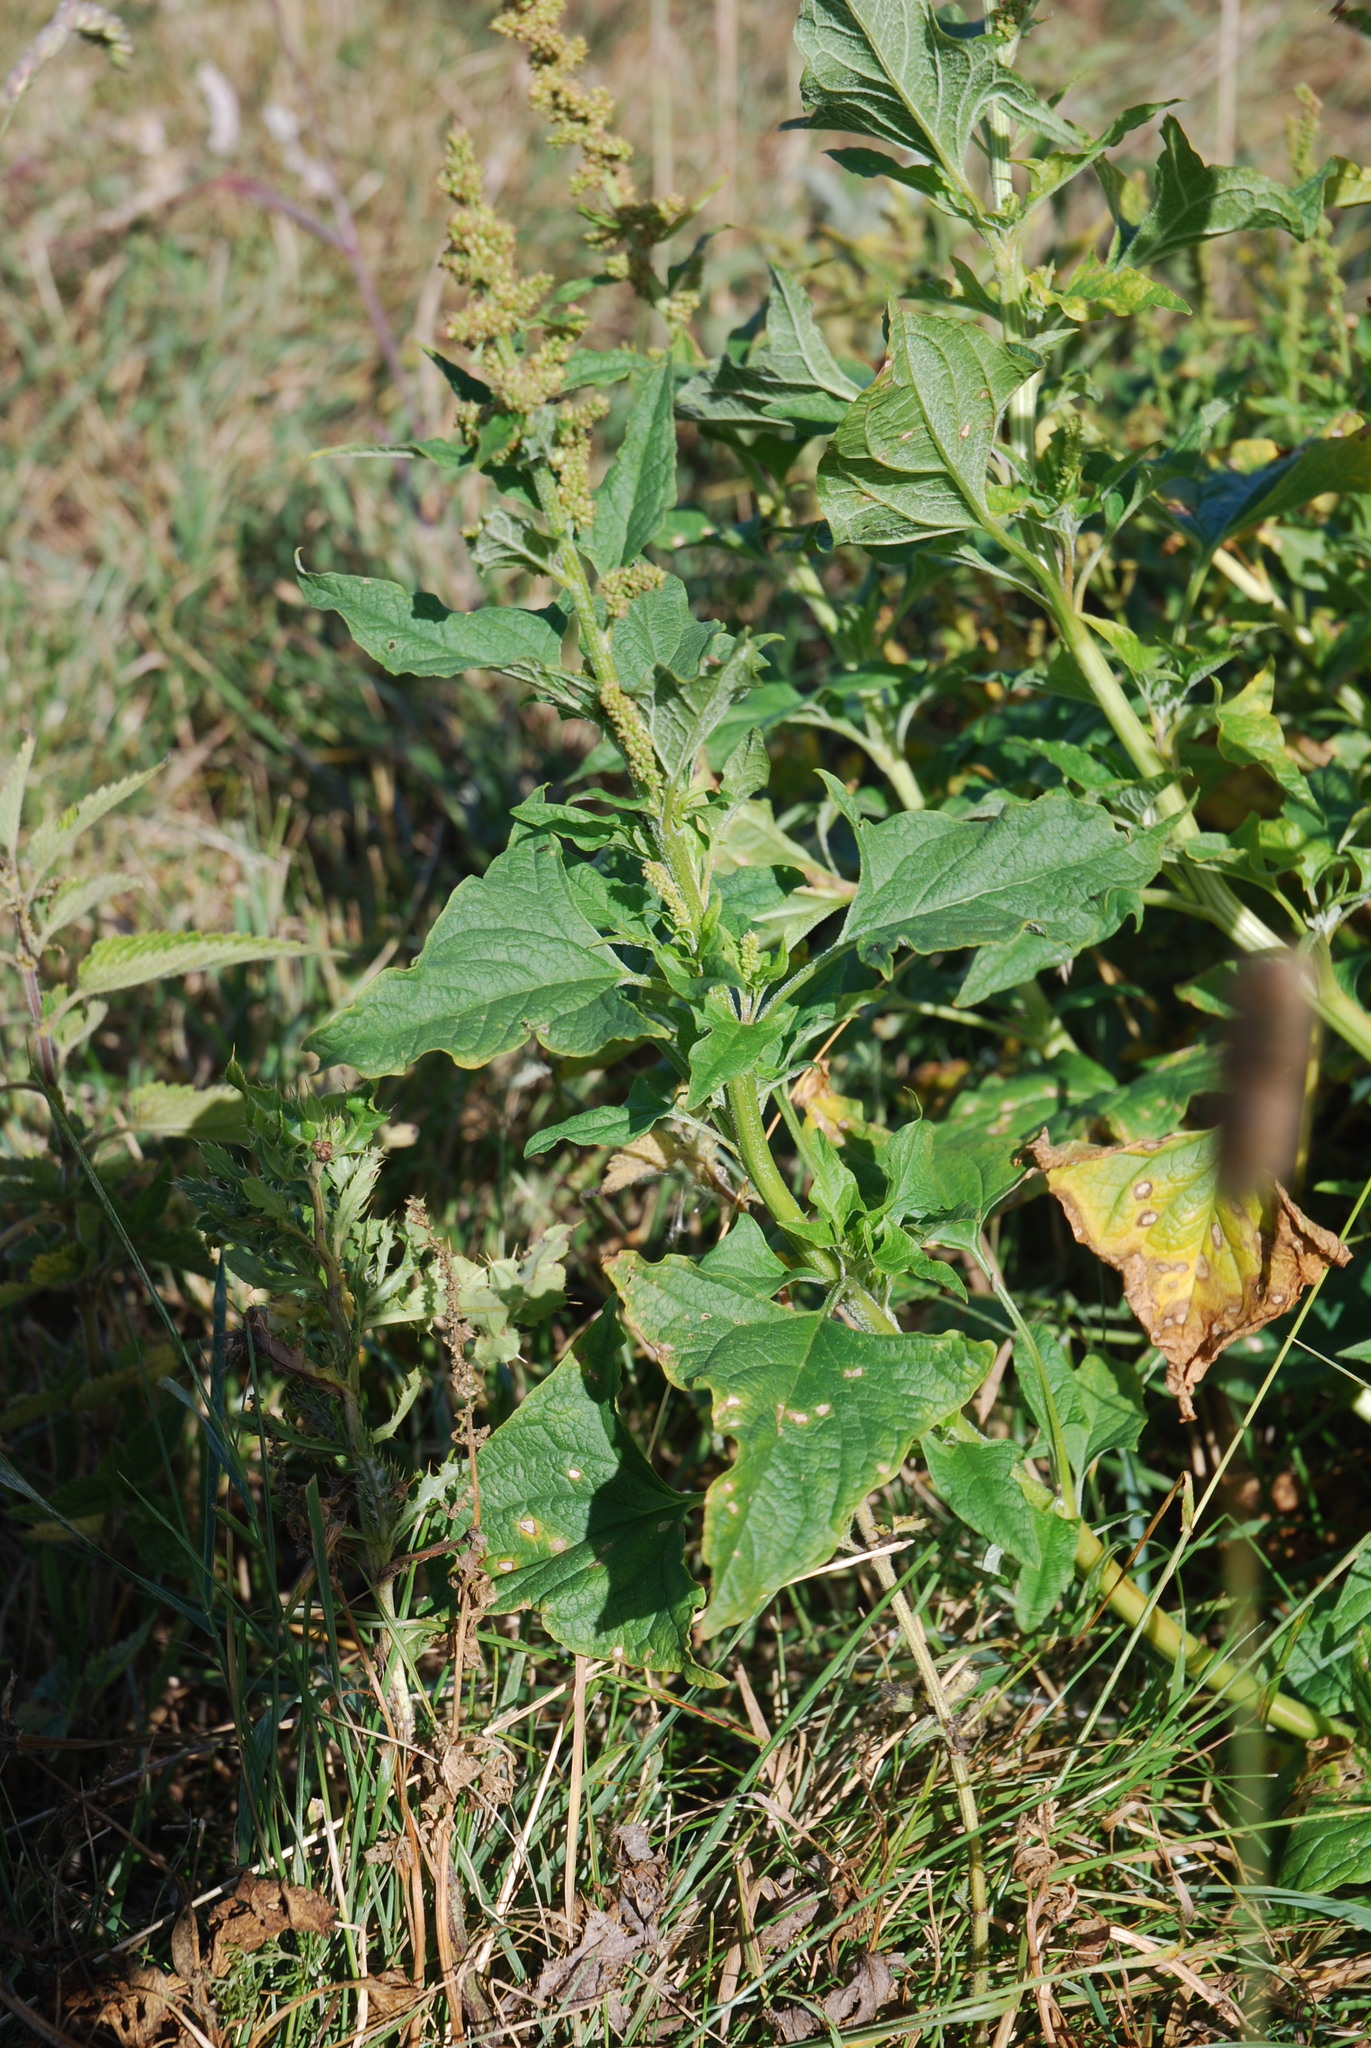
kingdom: Plantae
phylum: Tracheophyta
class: Magnoliopsida
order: Caryophyllales
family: Amaranthaceae
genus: Blitum
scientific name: Blitum bonus-henricus
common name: Good king henry
